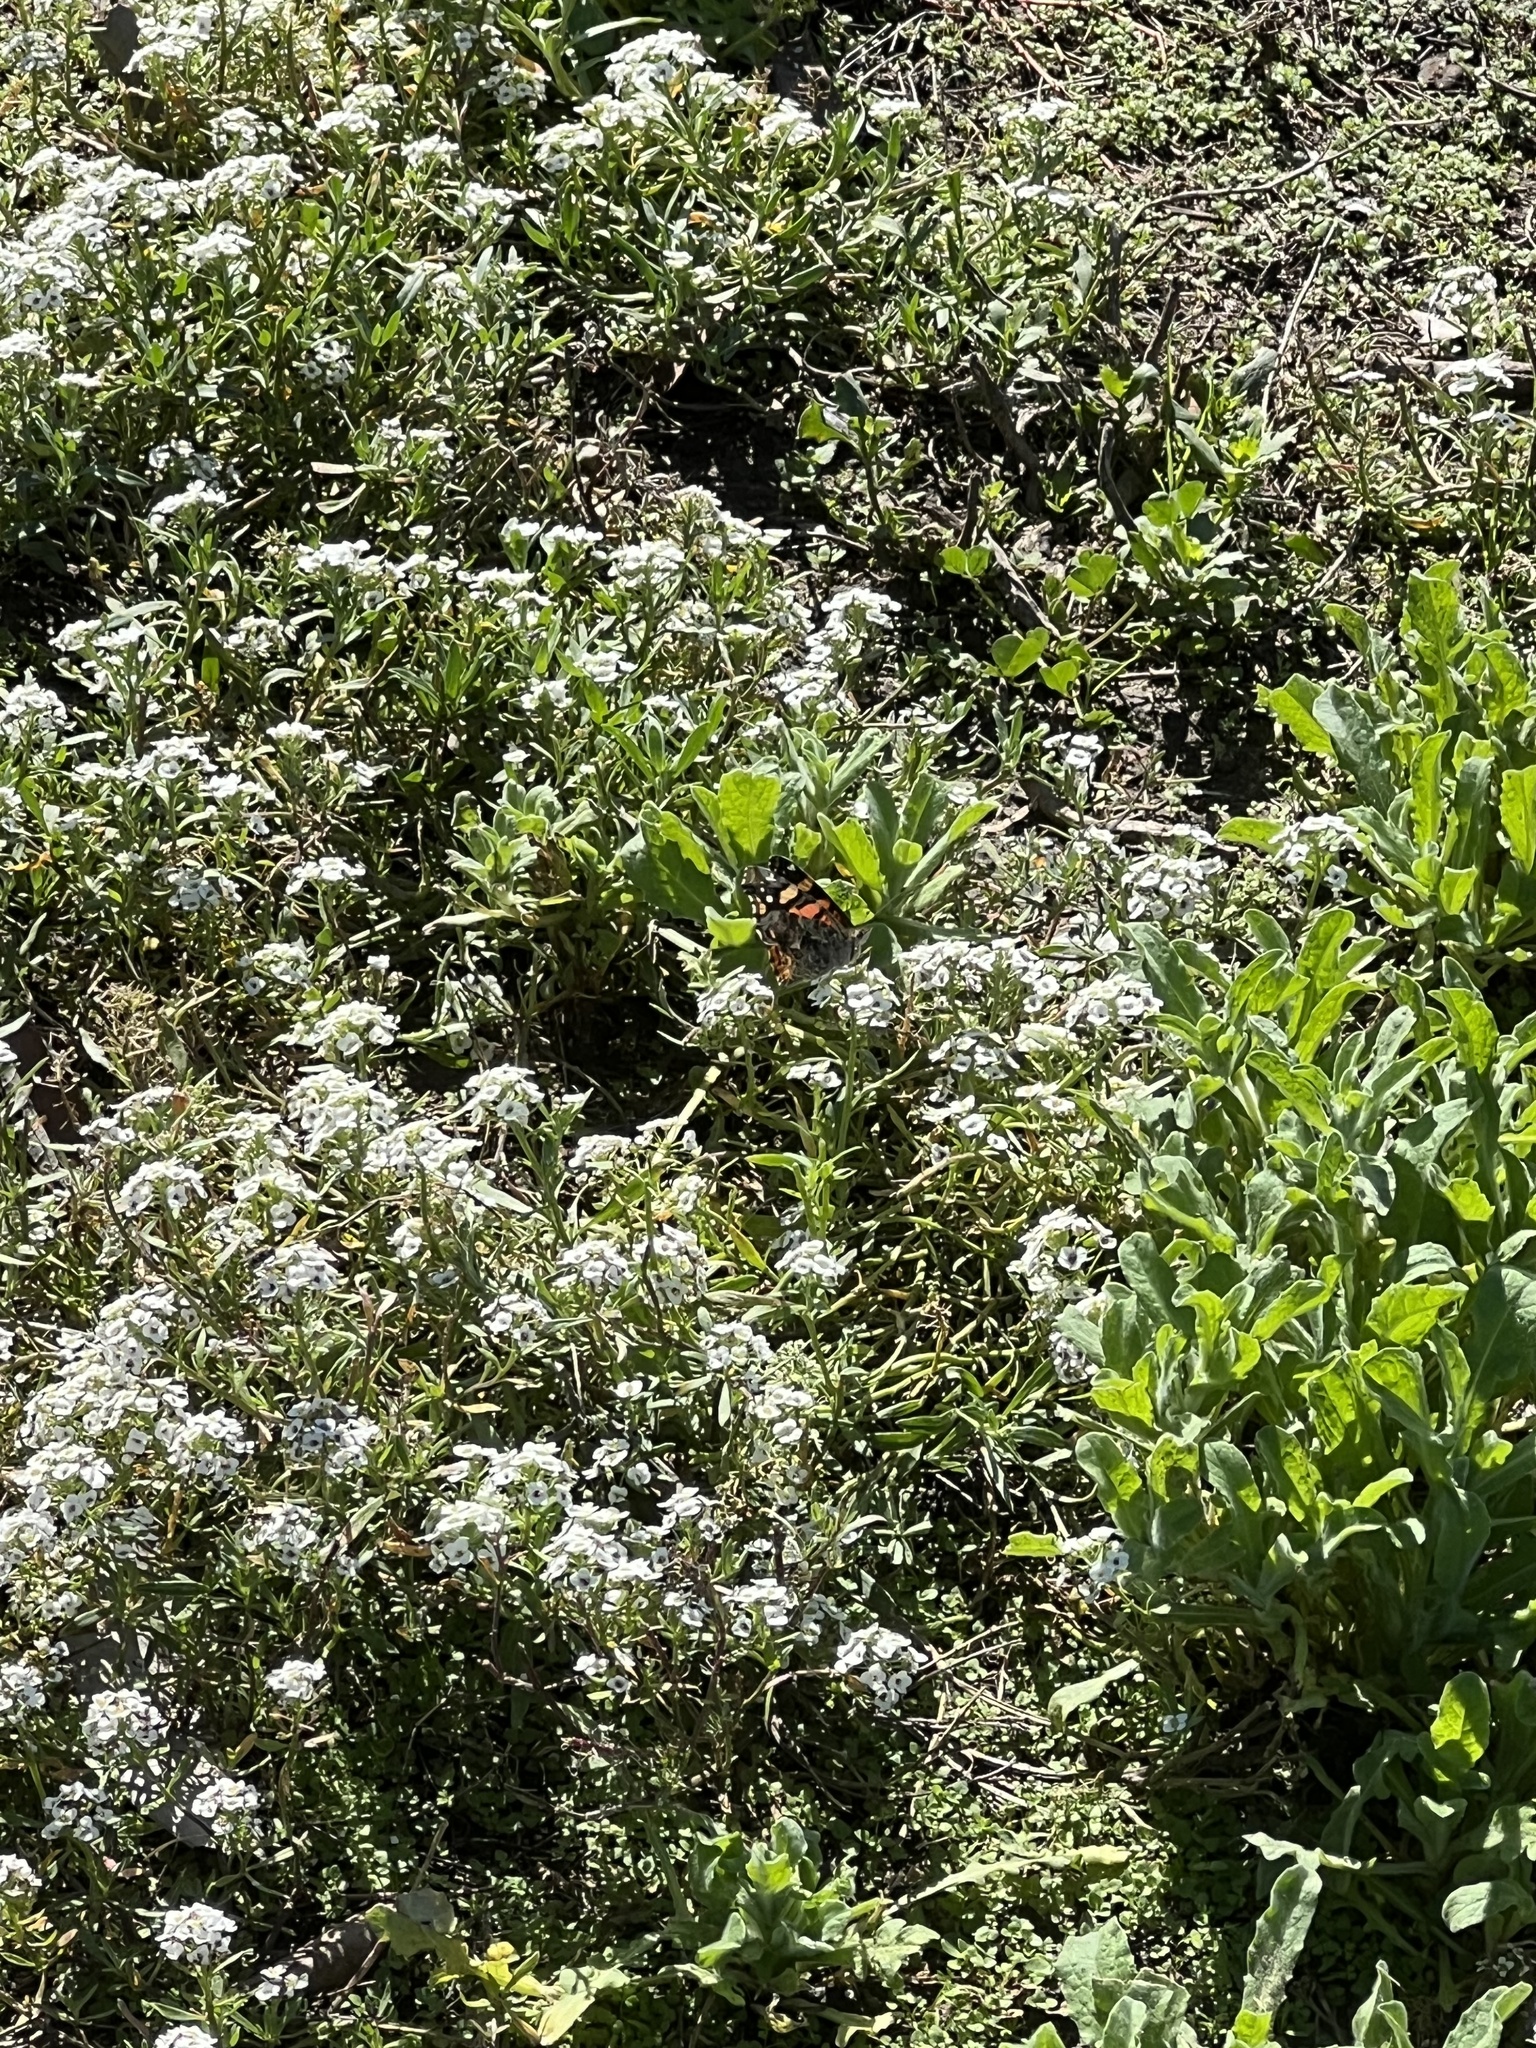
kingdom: Animalia
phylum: Arthropoda
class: Insecta
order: Lepidoptera
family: Nymphalidae
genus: Vanessa
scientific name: Vanessa annabella
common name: West coast lady
